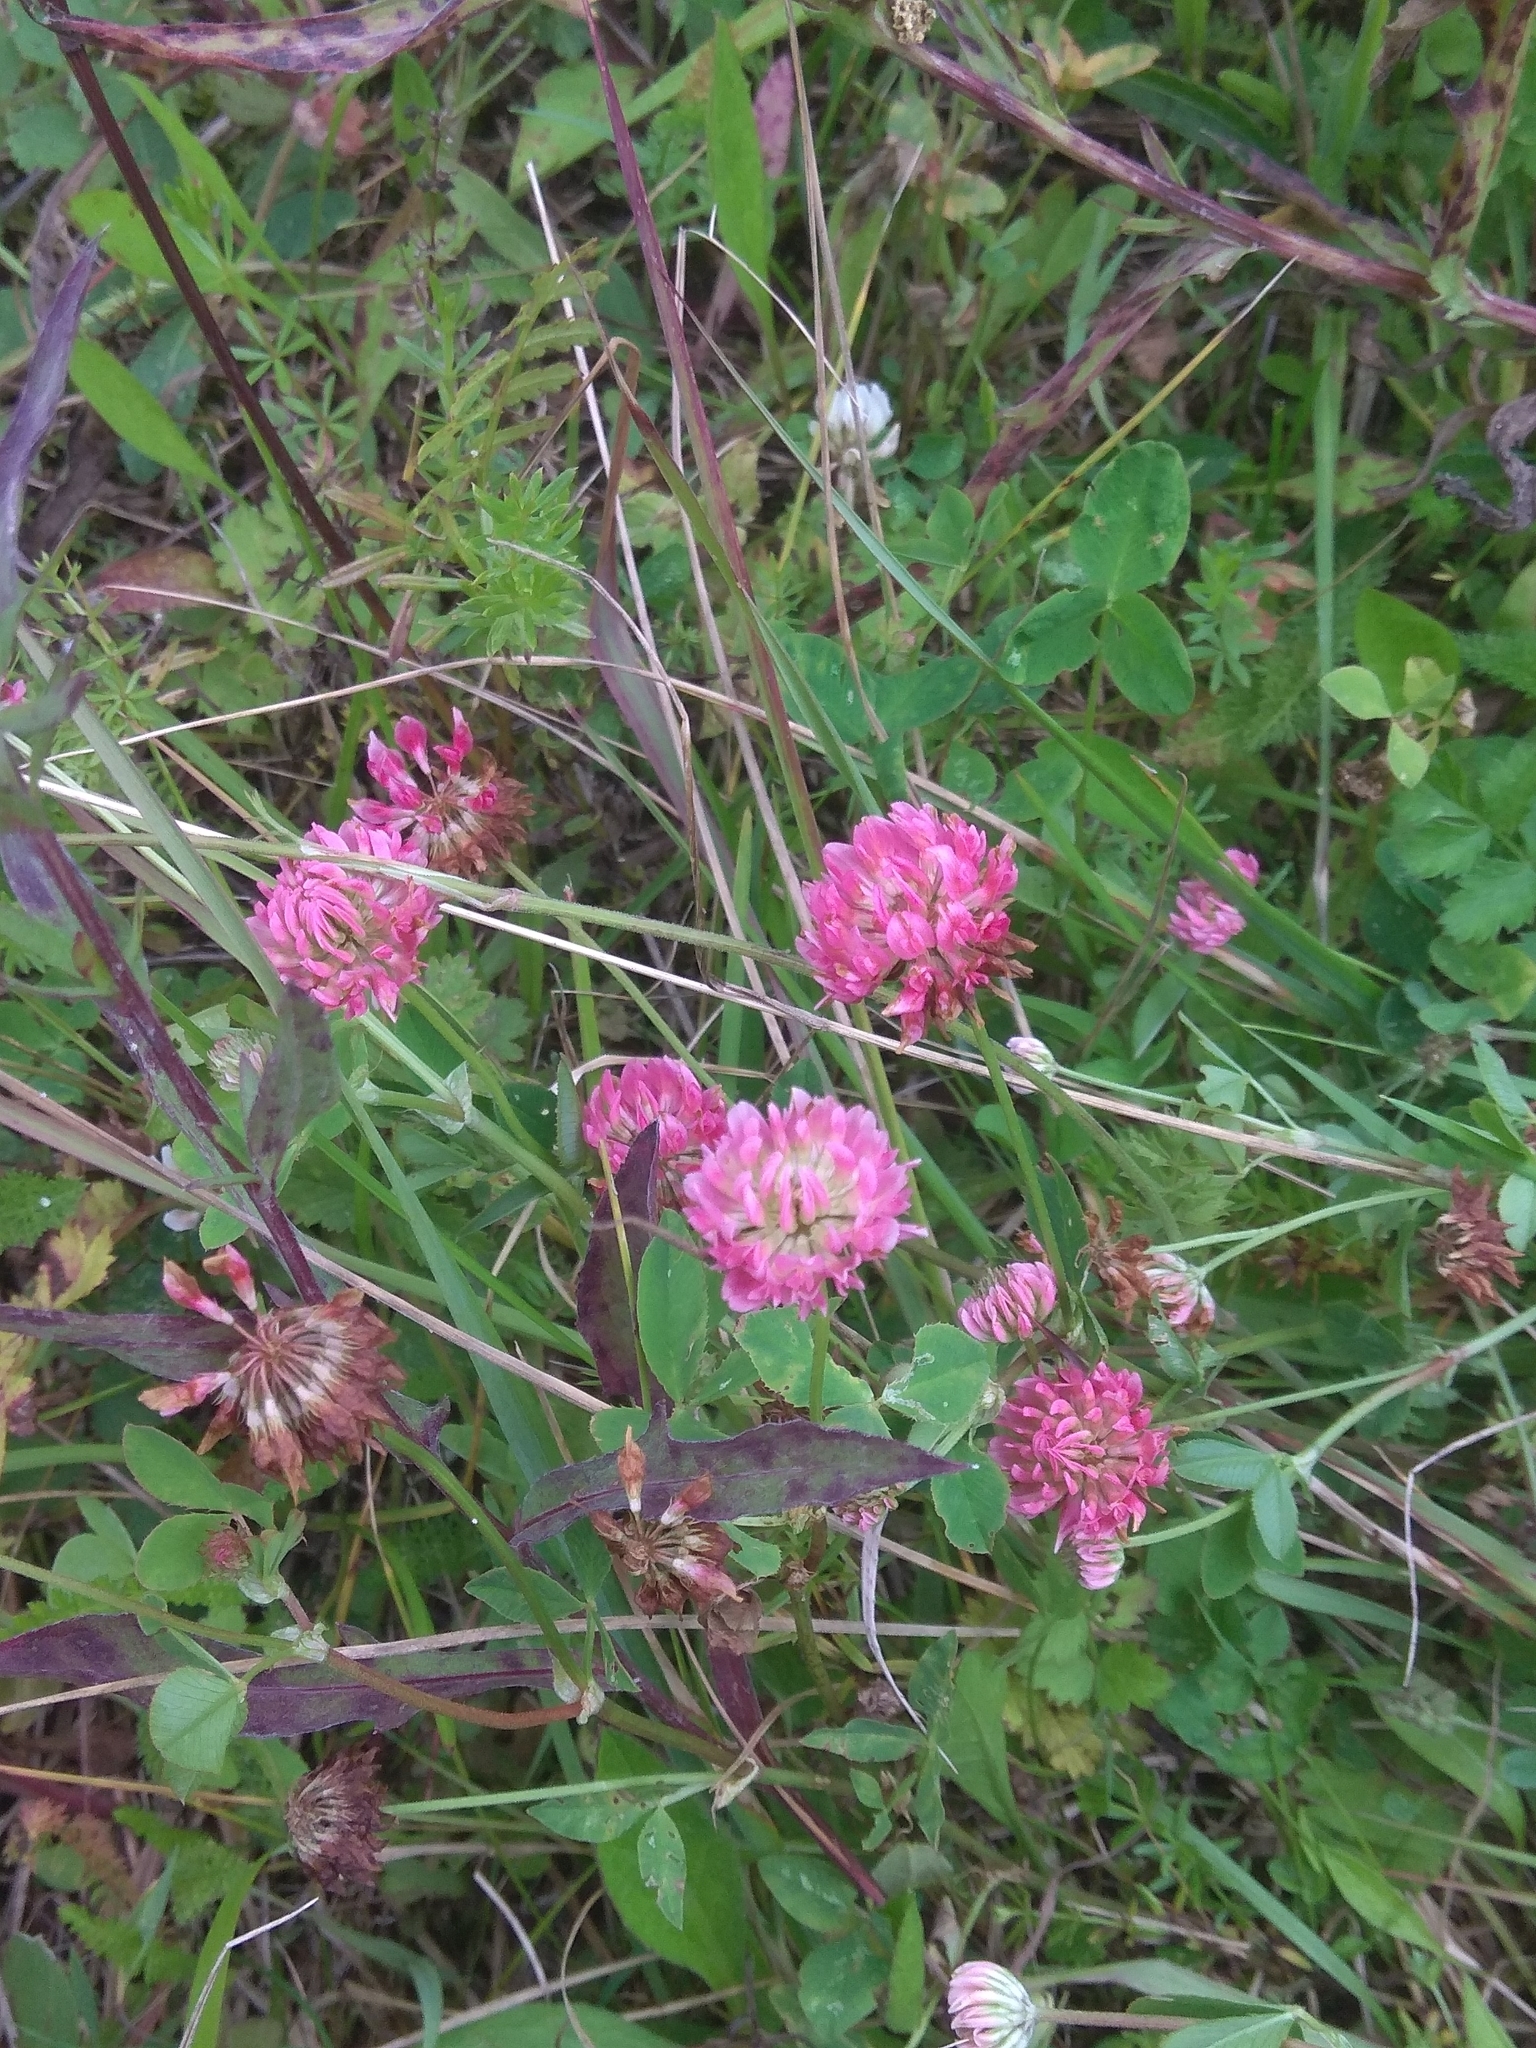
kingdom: Plantae
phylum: Tracheophyta
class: Magnoliopsida
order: Fabales
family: Fabaceae
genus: Trifolium
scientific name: Trifolium hybridum
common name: Alsike clover
